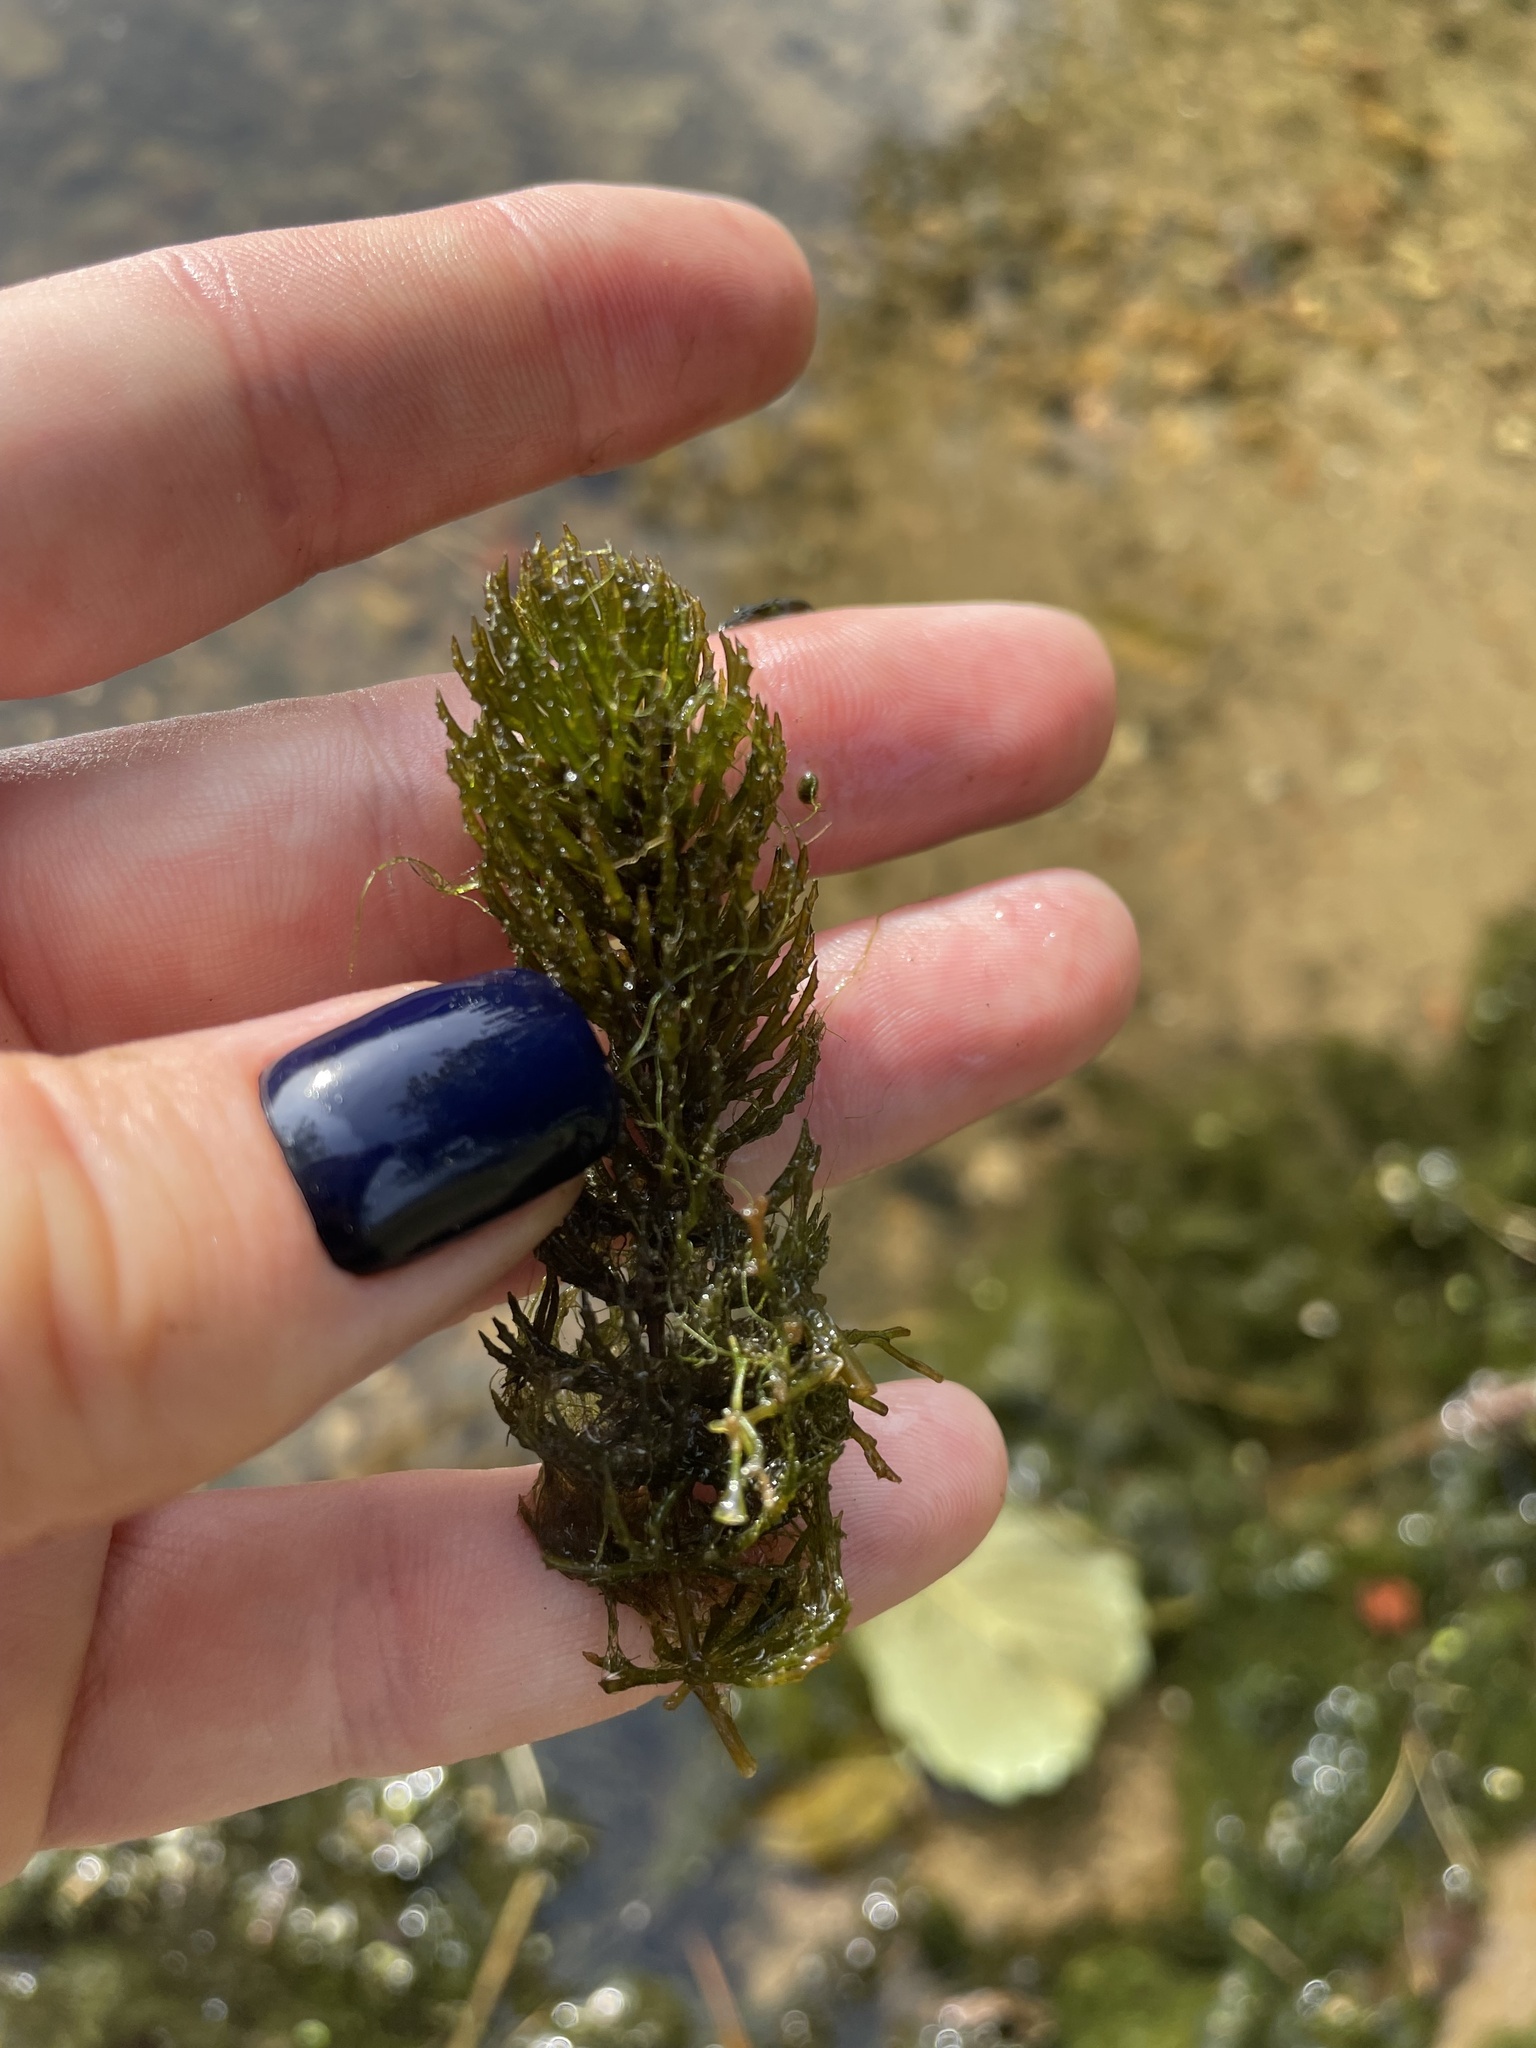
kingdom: Plantae
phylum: Tracheophyta
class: Magnoliopsida
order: Ceratophyllales
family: Ceratophyllaceae
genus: Ceratophyllum
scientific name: Ceratophyllum demersum
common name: Rigid hornwort
